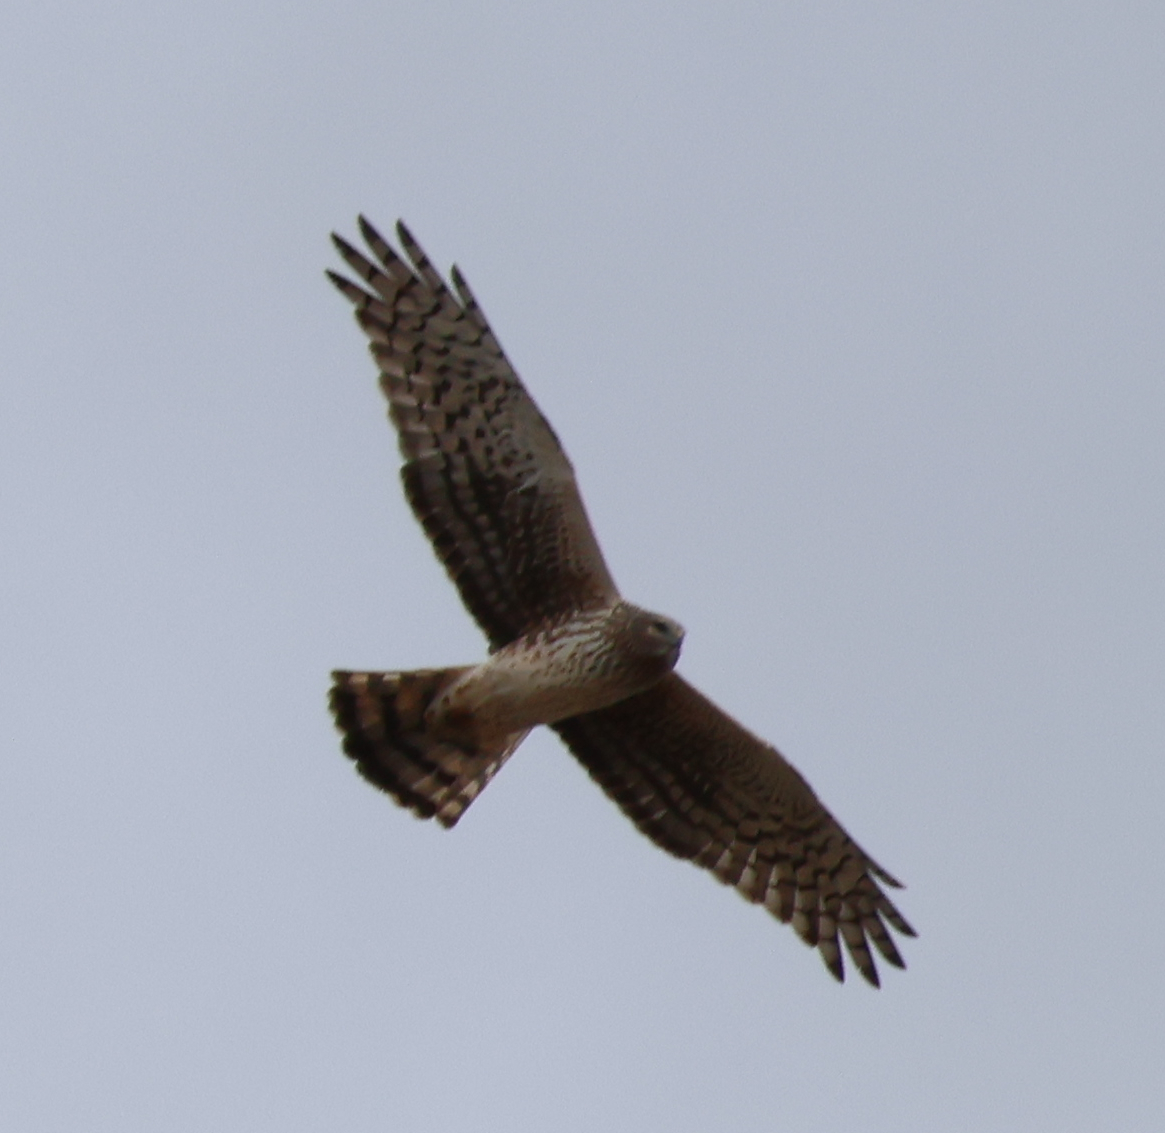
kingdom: Animalia
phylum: Chordata
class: Aves
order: Accipitriformes
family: Accipitridae
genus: Circus
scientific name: Circus cyaneus
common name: Hen harrier
